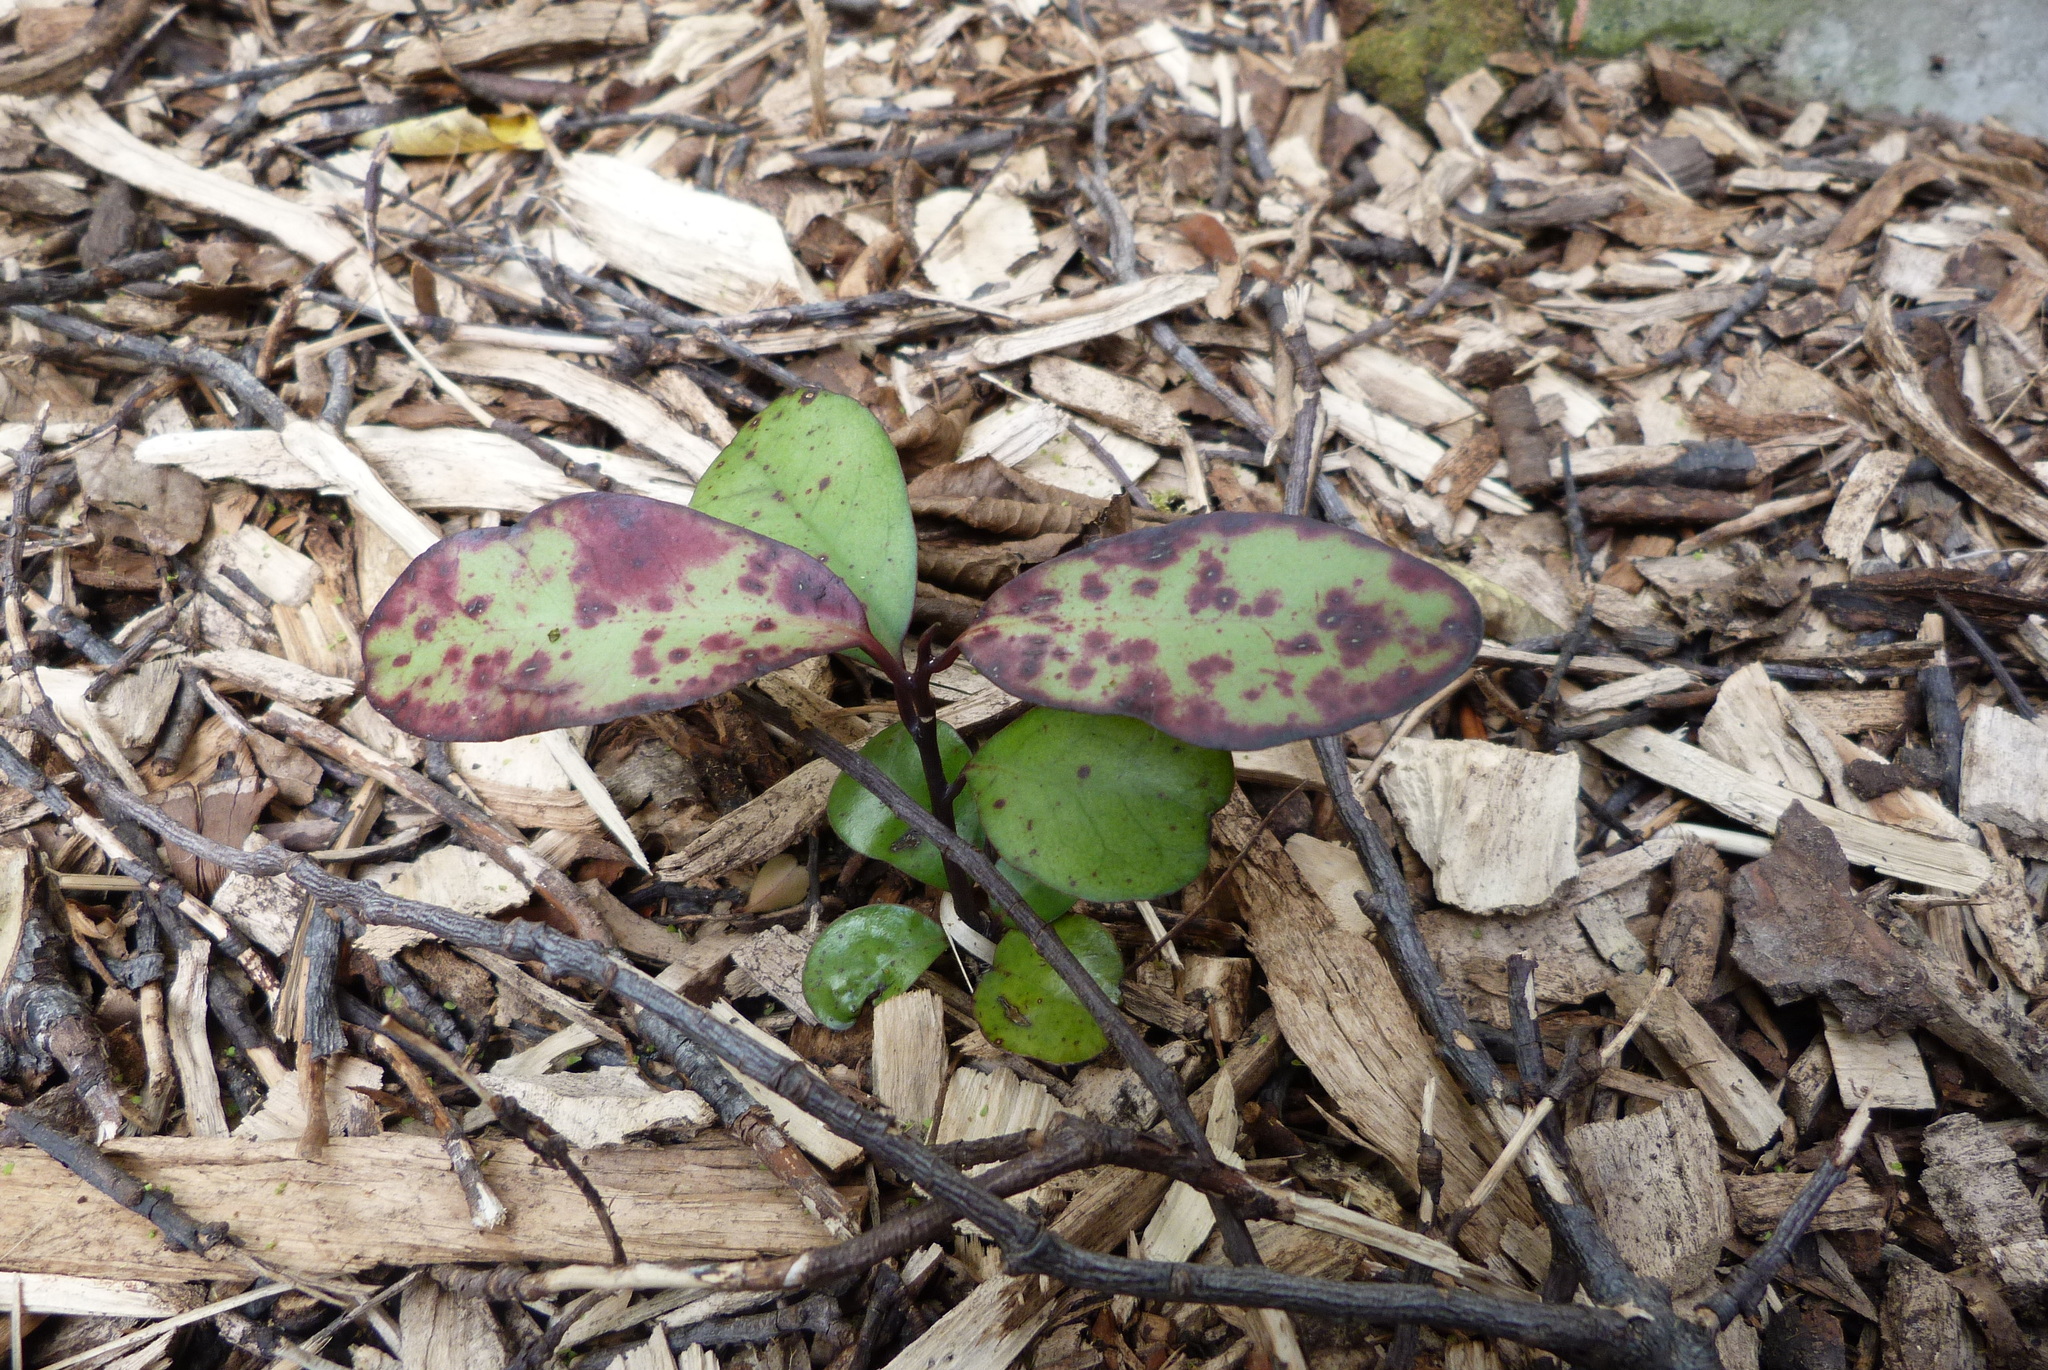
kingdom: Plantae
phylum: Tracheophyta
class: Magnoliopsida
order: Canellales
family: Winteraceae
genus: Pseudowintera
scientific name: Pseudowintera colorata
